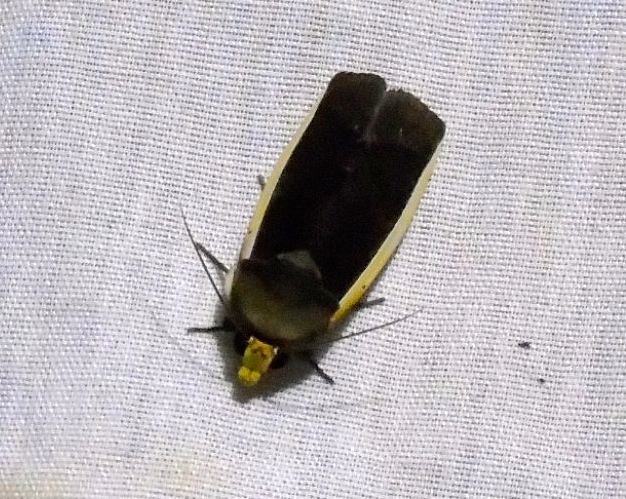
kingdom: Animalia
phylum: Arthropoda
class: Insecta
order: Lepidoptera
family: Erebidae
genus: Gonodonta
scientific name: Gonodonta
